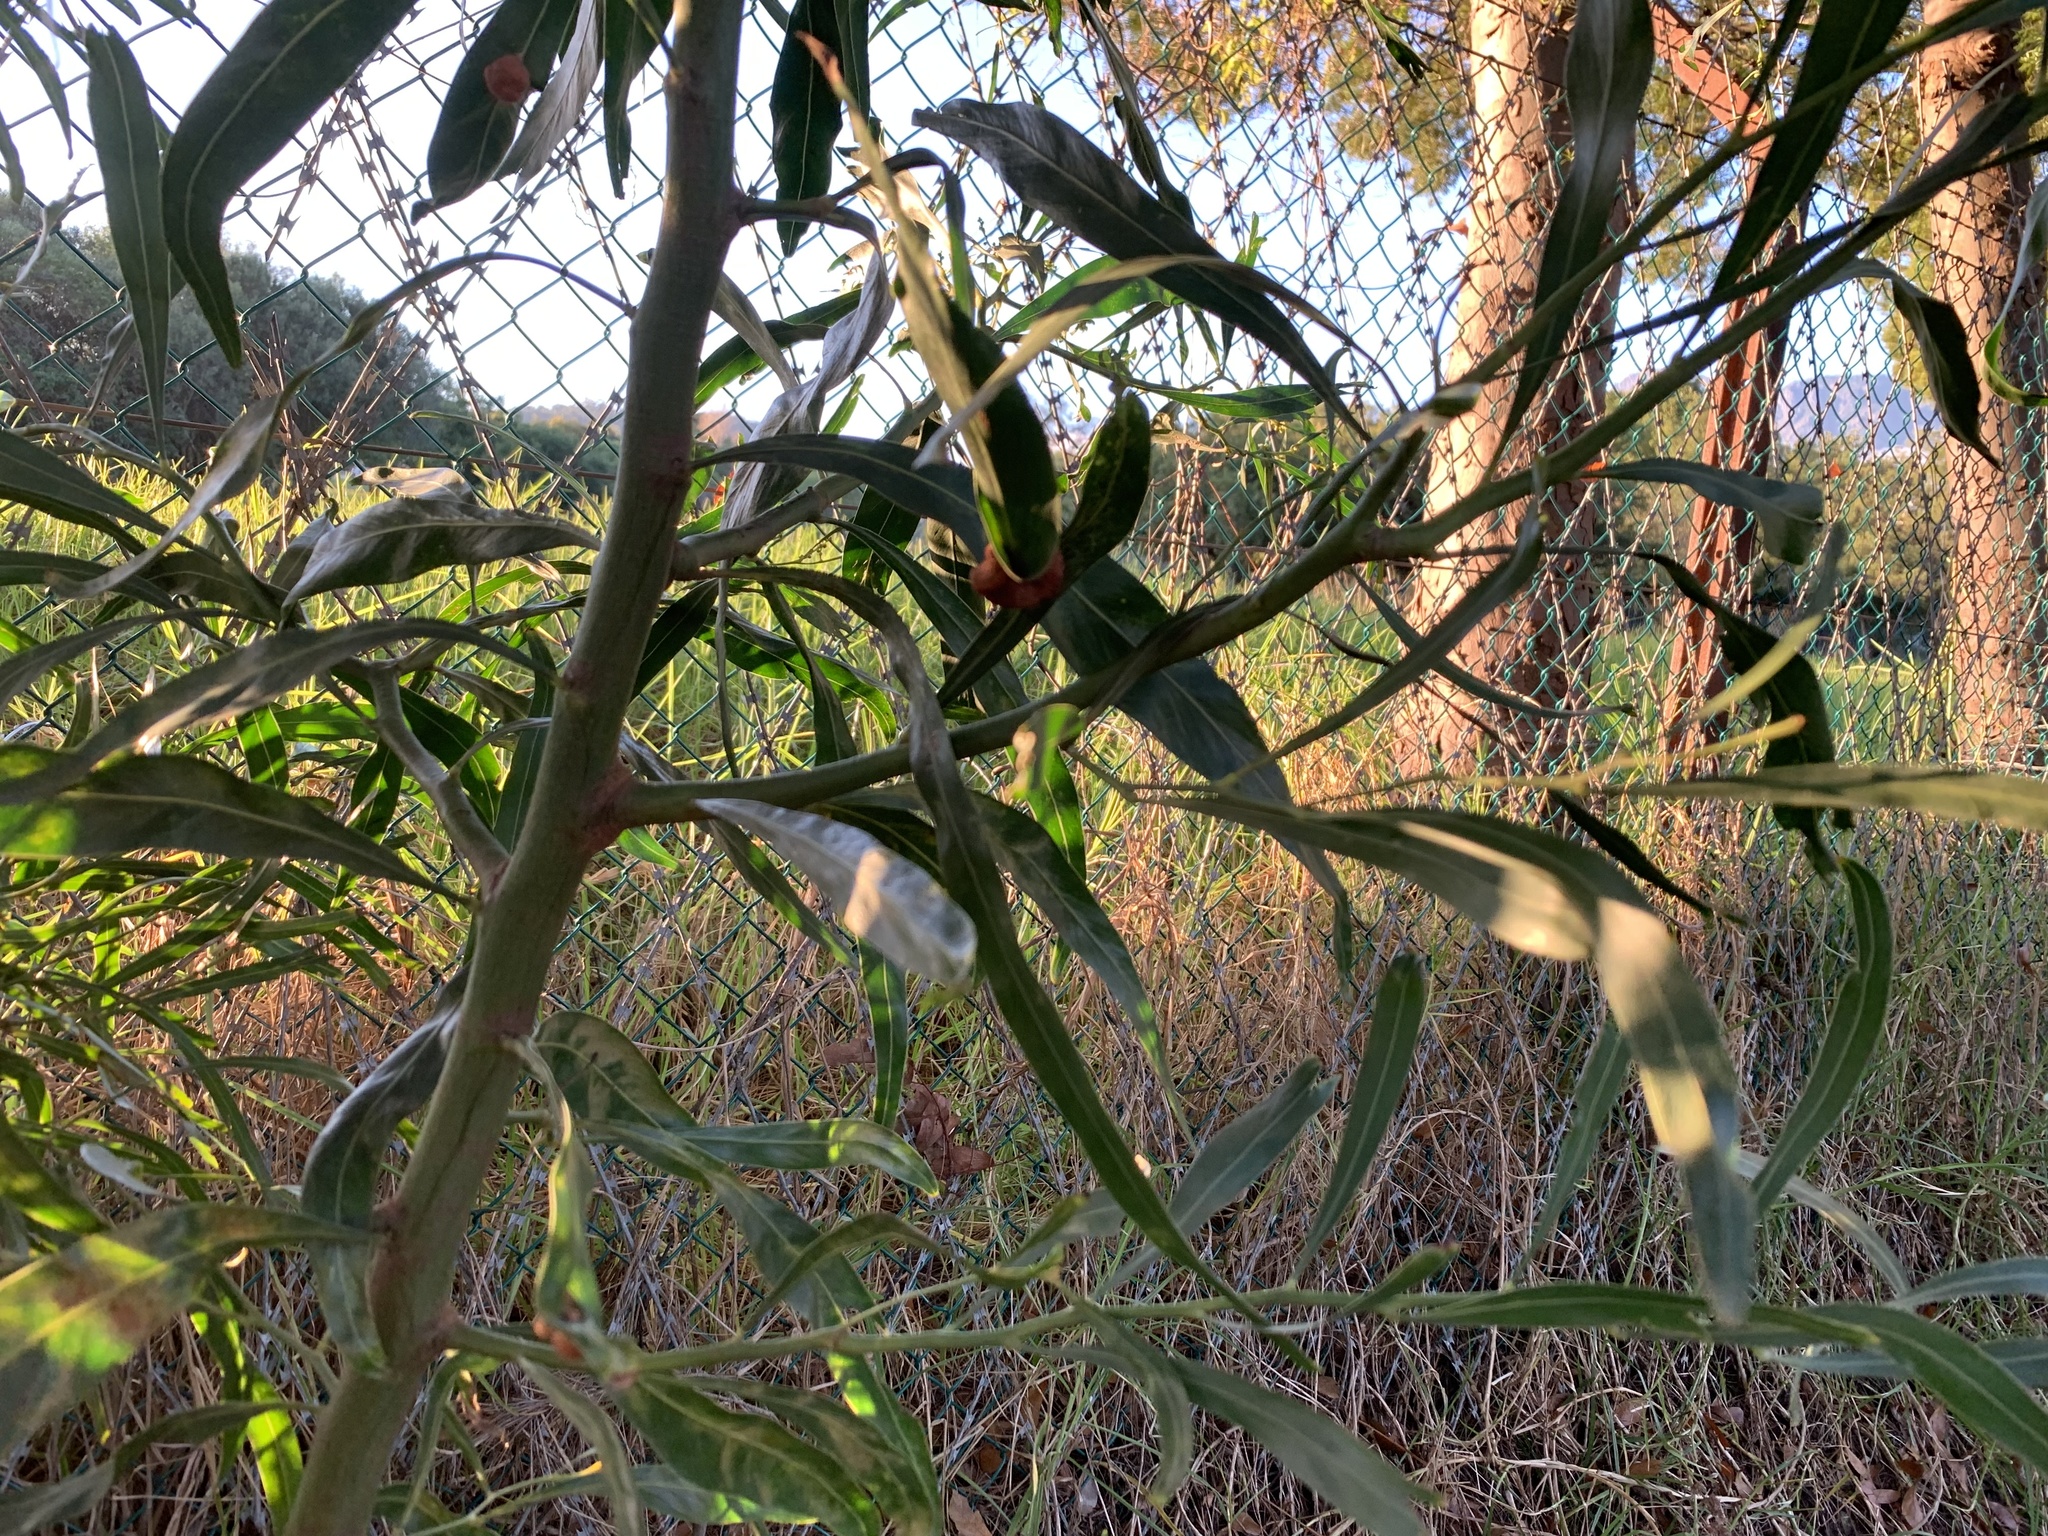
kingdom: Plantae
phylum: Tracheophyta
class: Magnoliopsida
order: Fabales
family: Fabaceae
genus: Acacia
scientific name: Acacia saligna
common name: Orange wattle
